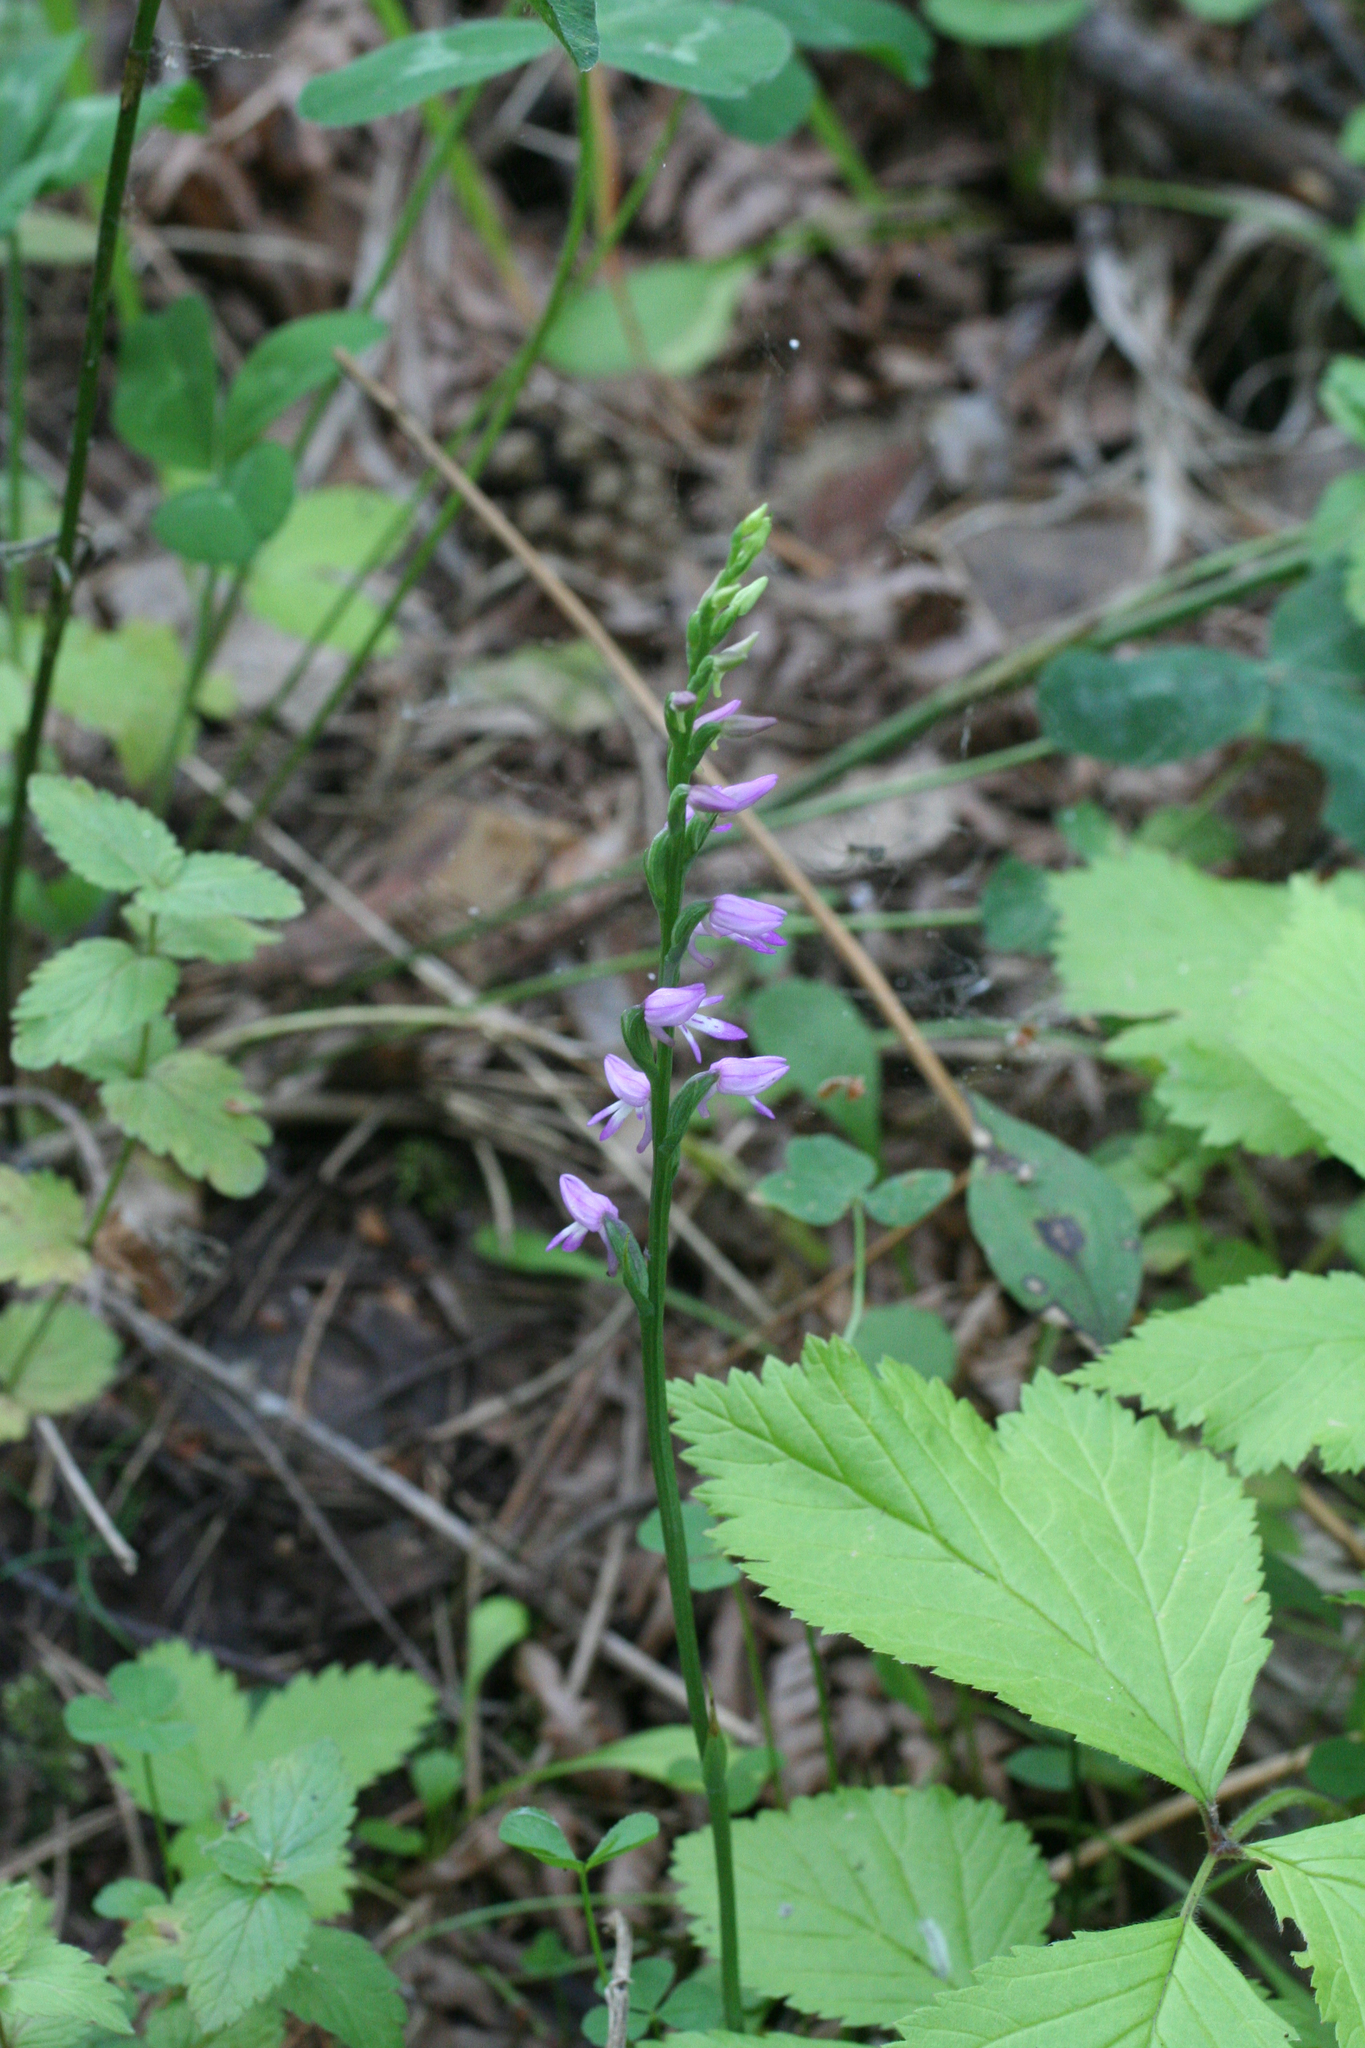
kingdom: Plantae
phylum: Tracheophyta
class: Liliopsida
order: Asparagales
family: Orchidaceae
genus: Hemipilia
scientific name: Hemipilia cucullata
